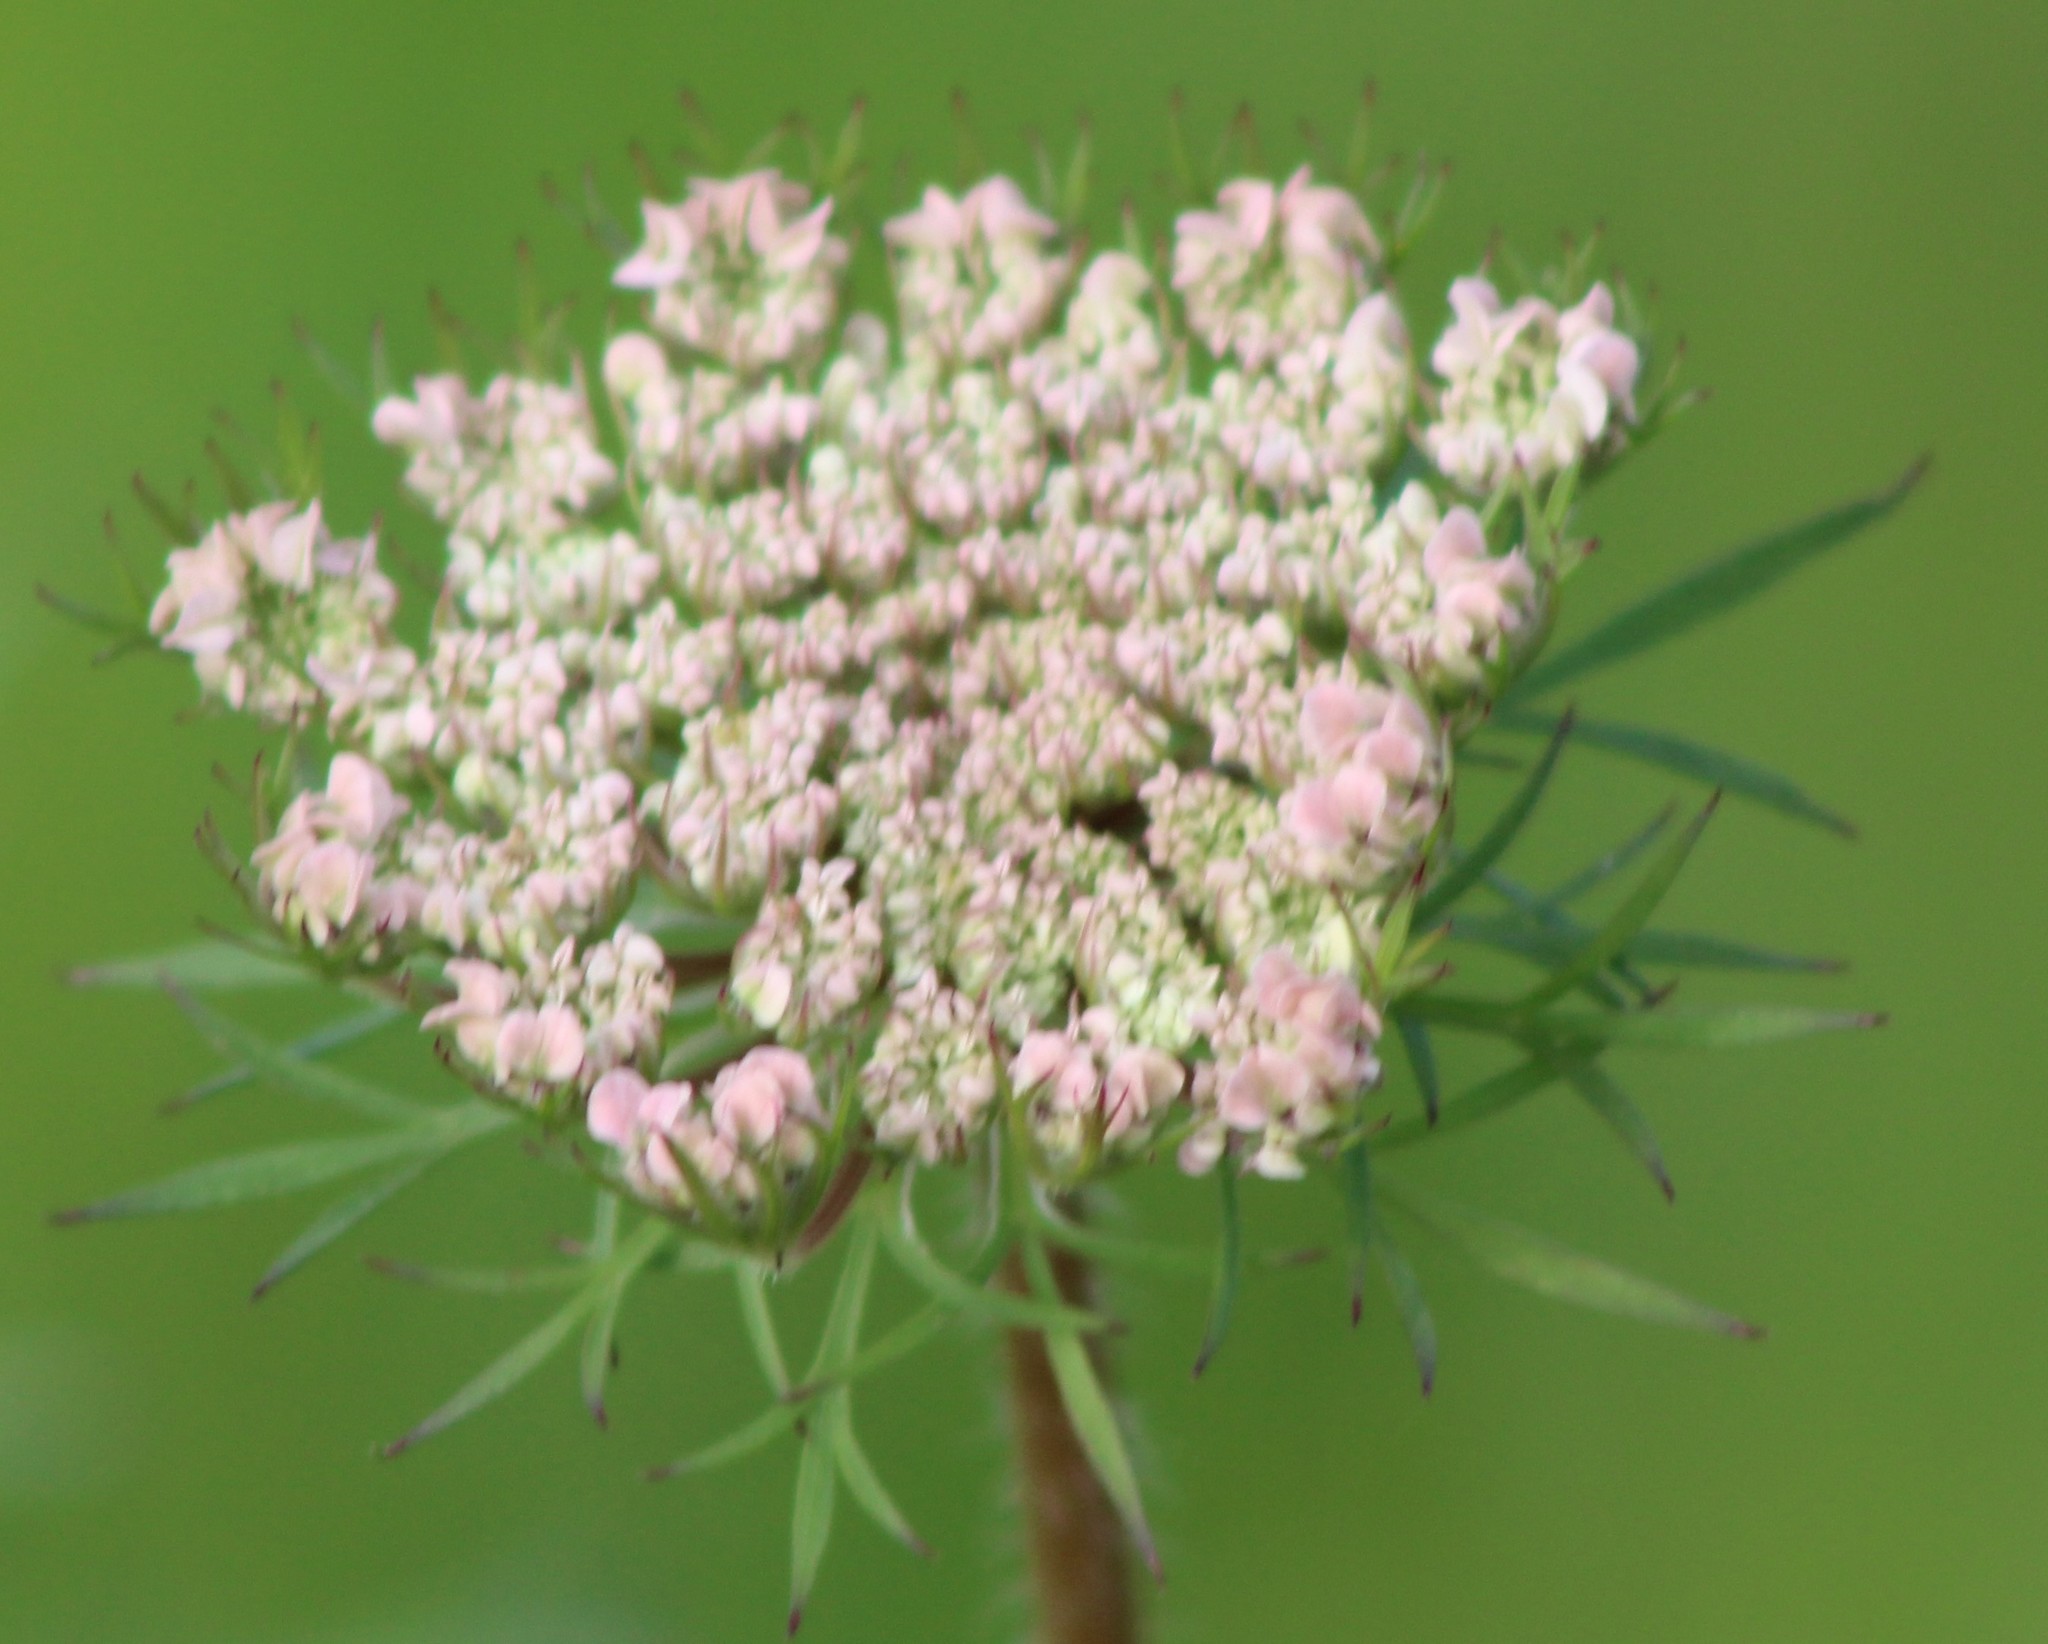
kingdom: Plantae
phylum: Tracheophyta
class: Magnoliopsida
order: Apiales
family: Apiaceae
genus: Daucus
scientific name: Daucus carota
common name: Wild carrot
